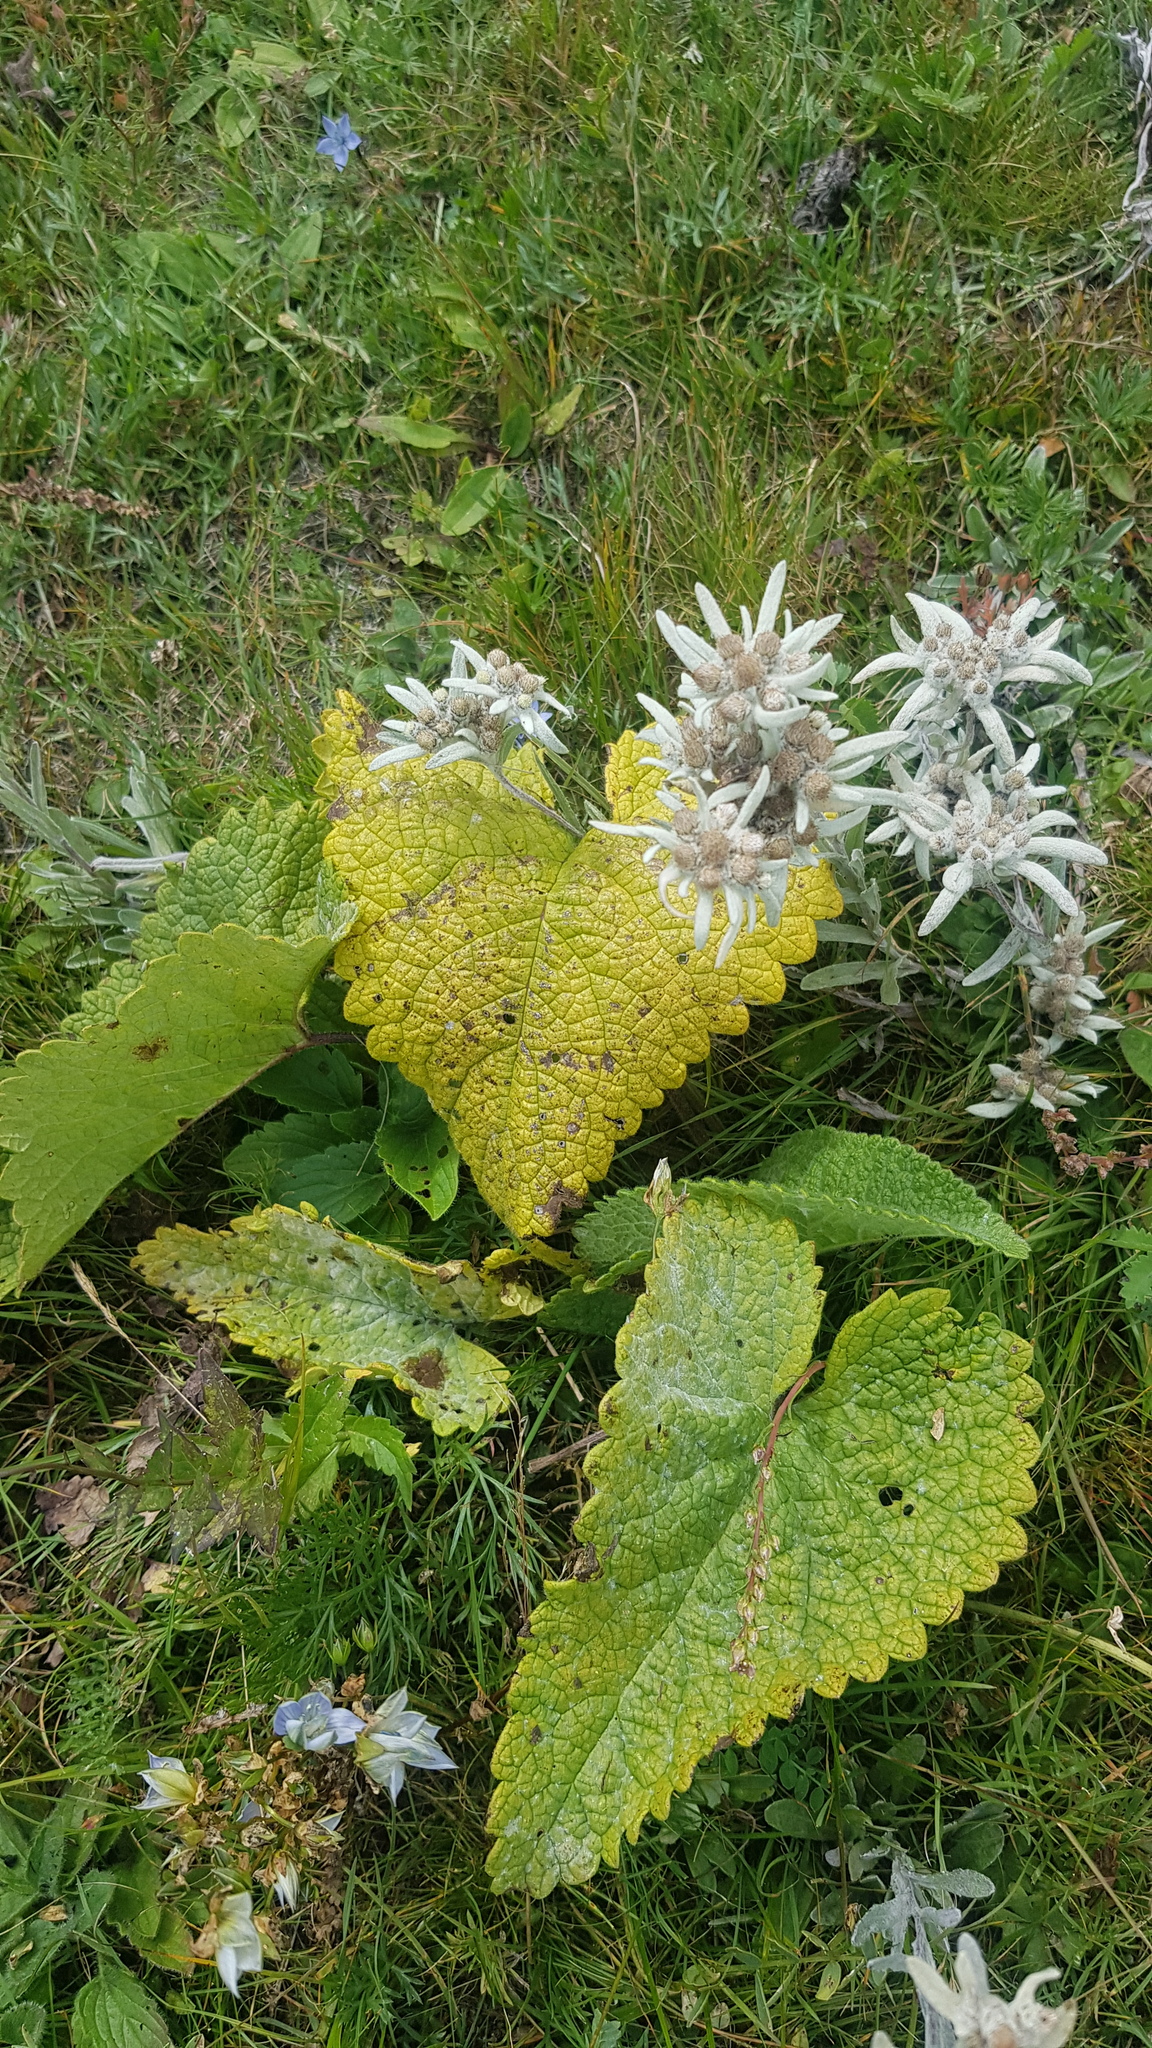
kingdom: Plantae
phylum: Tracheophyta
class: Magnoliopsida
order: Lamiales
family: Lamiaceae
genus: Phlomoides
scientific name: Phlomoides tuberosa
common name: Tuberous jerusalem sage
